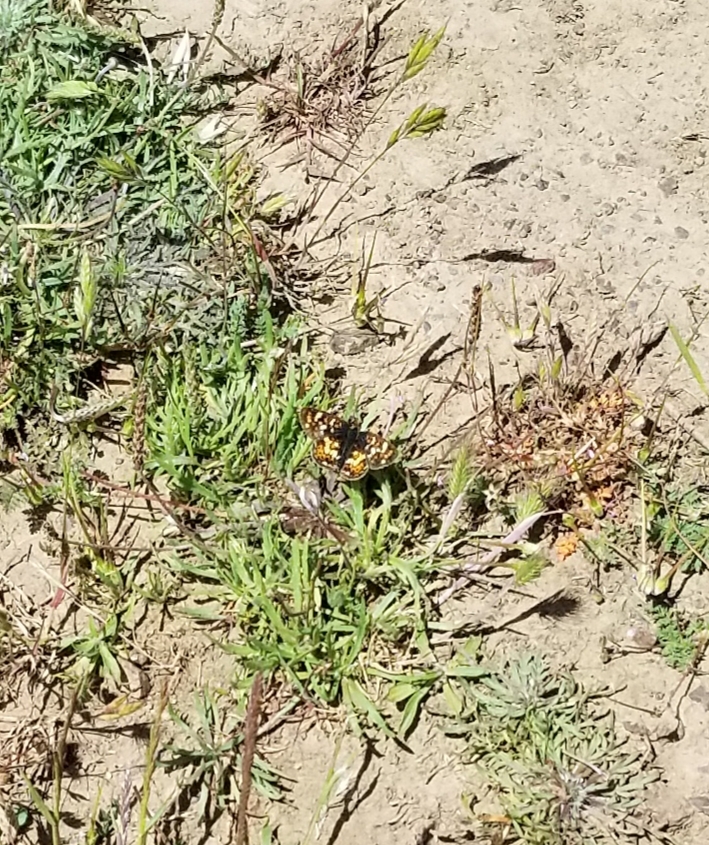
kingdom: Animalia
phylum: Arthropoda
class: Insecta
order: Lepidoptera
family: Nymphalidae
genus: Phyciodes
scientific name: Phyciodes tharos
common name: Pearl crescent
